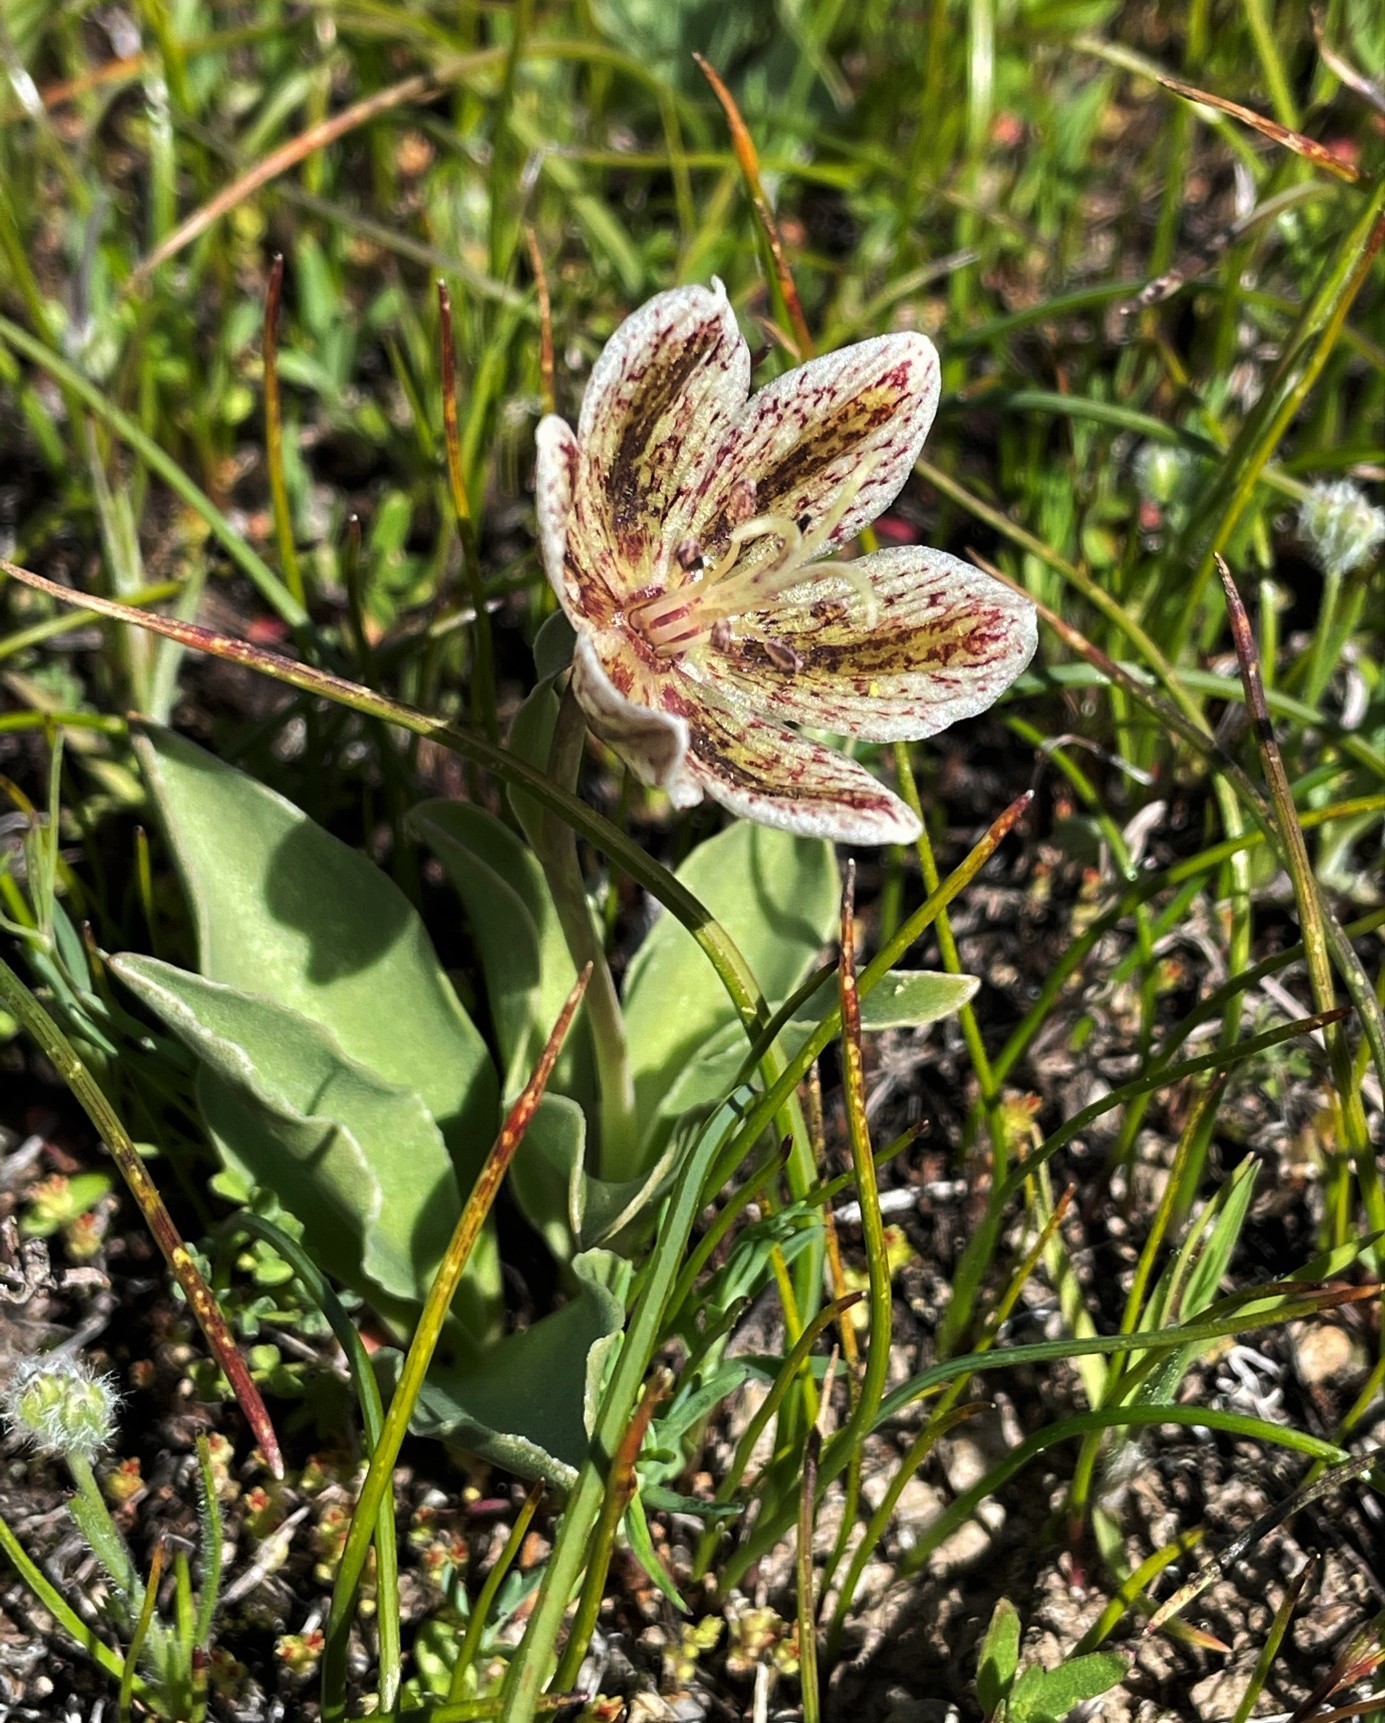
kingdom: Plantae
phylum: Tracheophyta
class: Liliopsida
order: Liliales
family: Liliaceae
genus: Fritillaria
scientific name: Fritillaria purdyi
